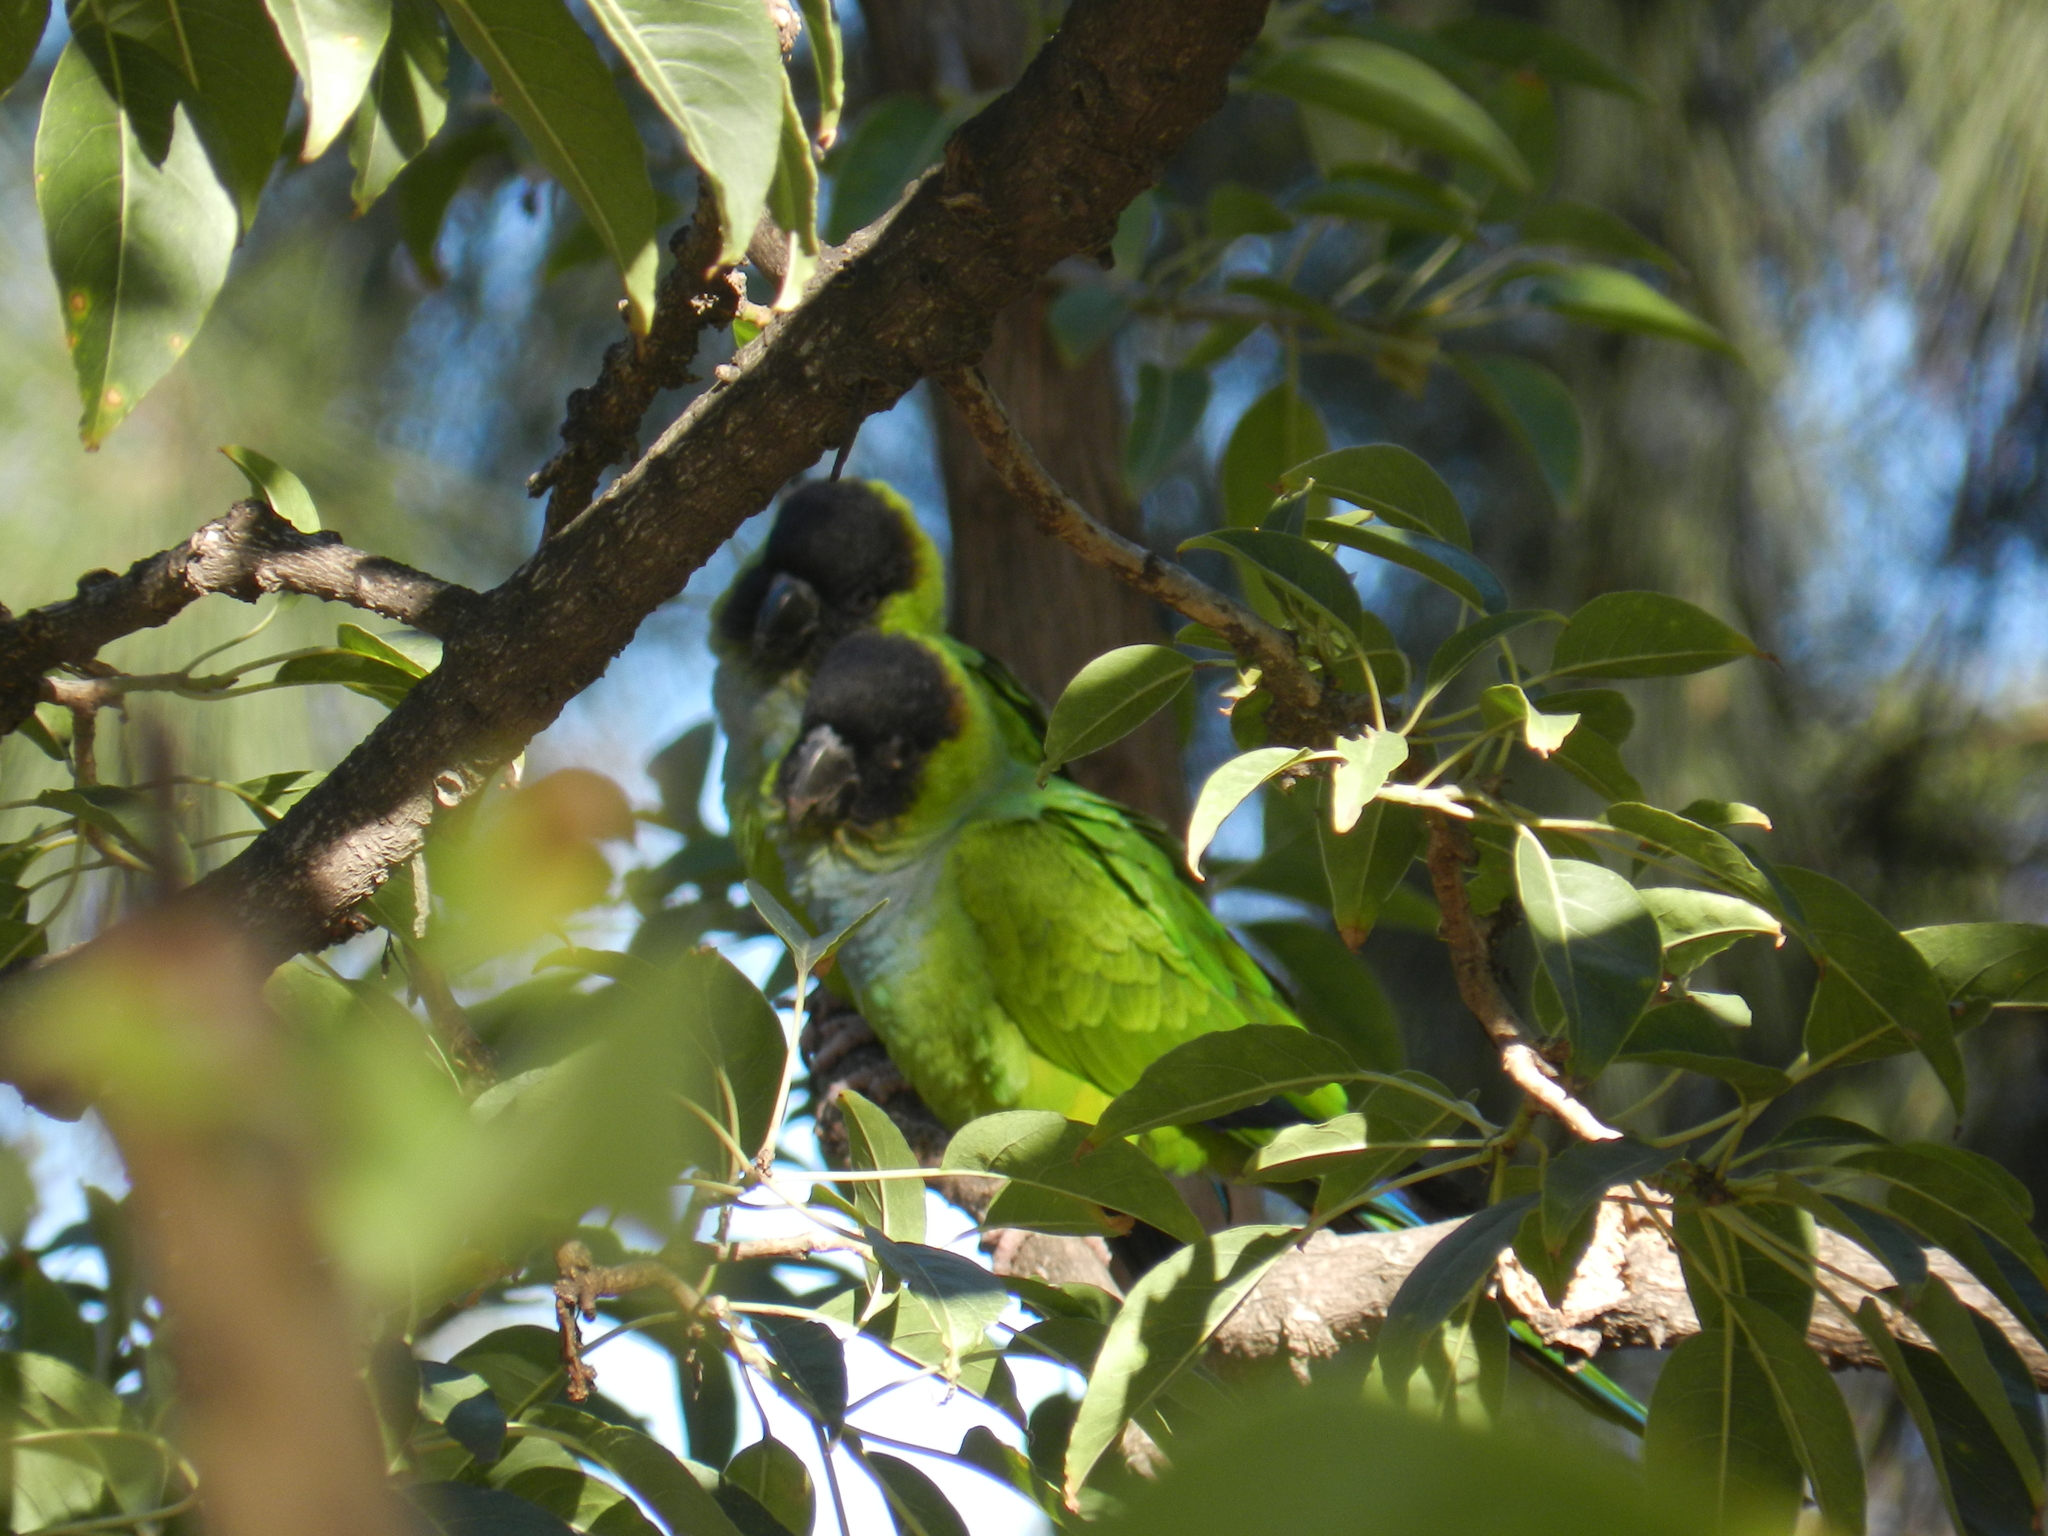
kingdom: Animalia
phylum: Chordata
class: Aves
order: Psittaciformes
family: Psittacidae
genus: Nandayus
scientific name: Nandayus nenday
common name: Nanday parakeet
